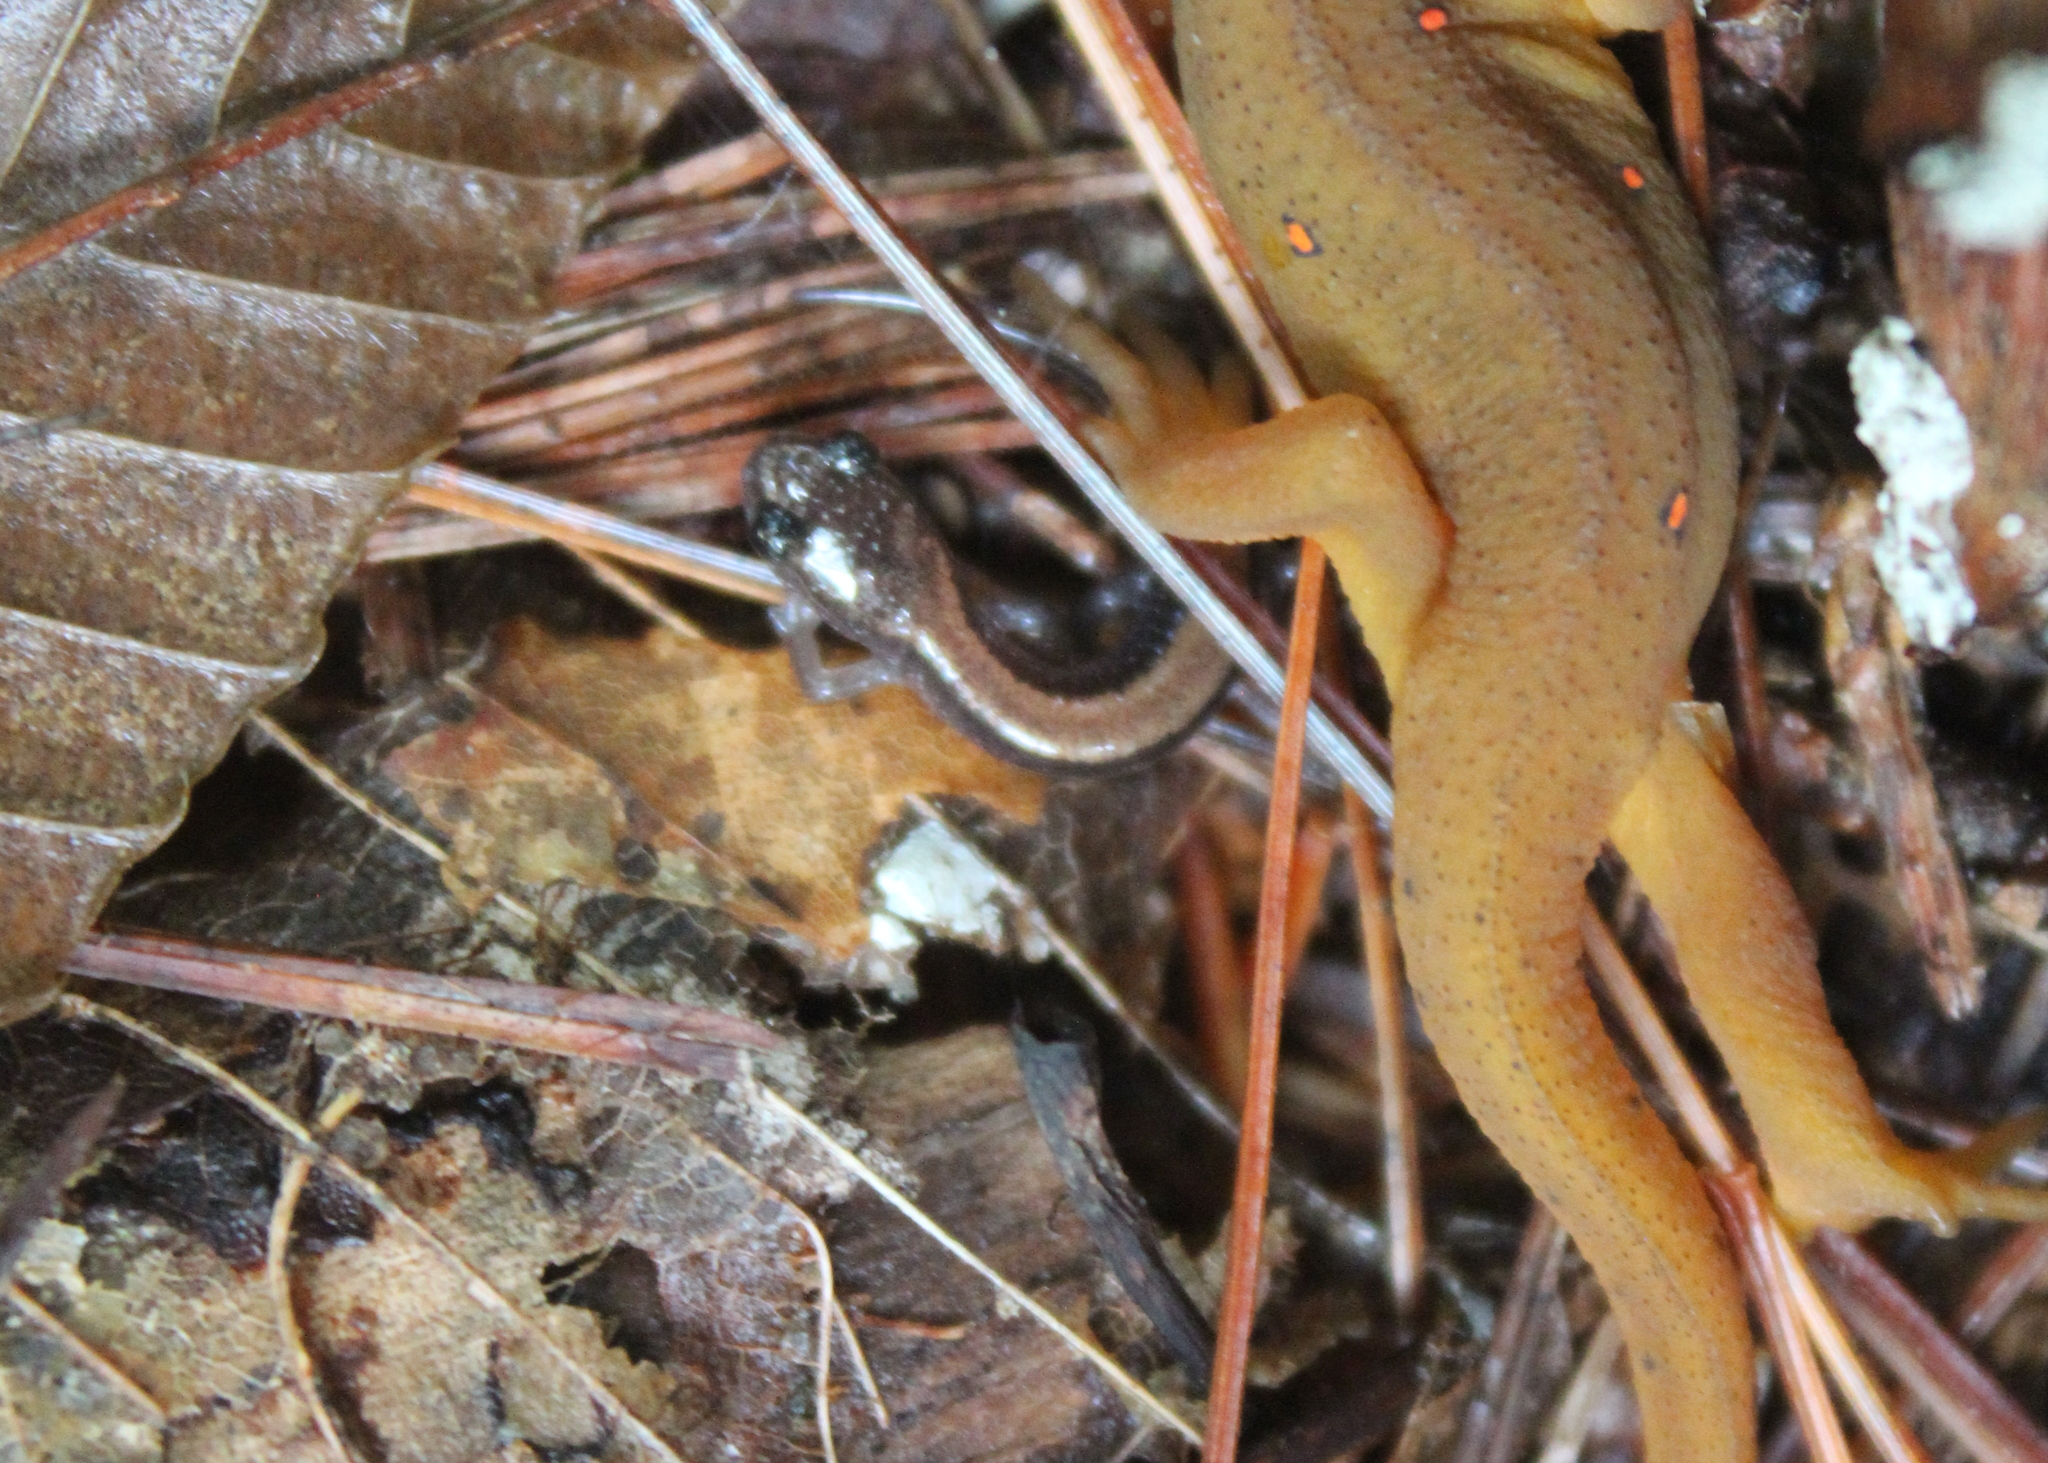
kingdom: Animalia
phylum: Chordata
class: Amphibia
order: Caudata
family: Plethodontidae
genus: Plethodon
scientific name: Plethodon cinereus
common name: Redback salamander
